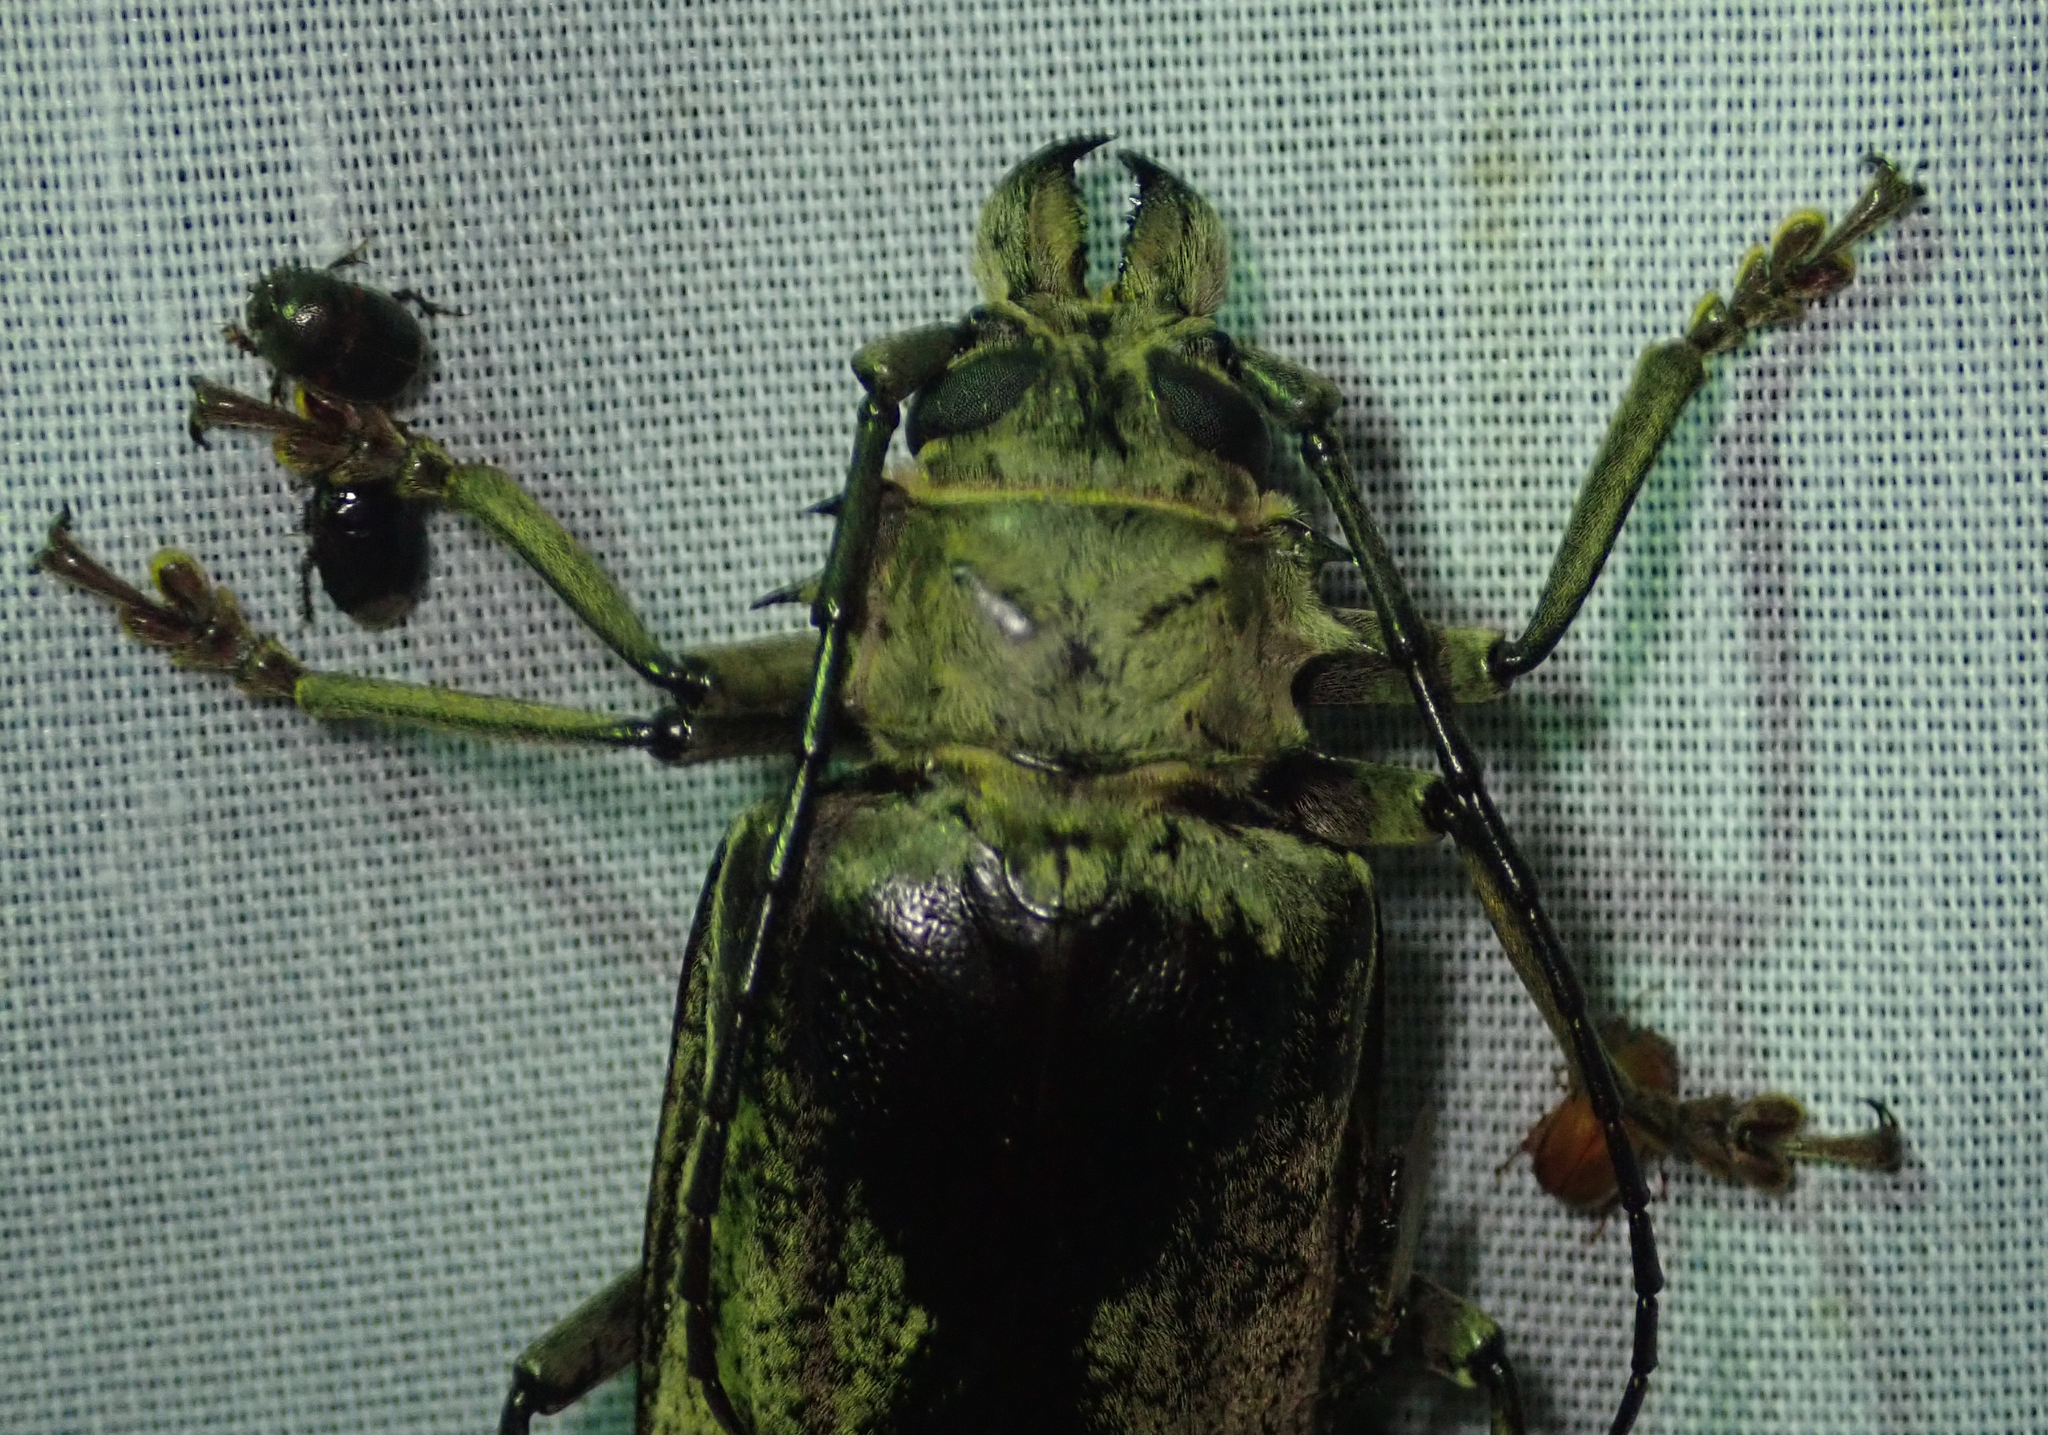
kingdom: Animalia
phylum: Arthropoda
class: Insecta
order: Coleoptera
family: Cerambycidae
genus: Tithoes
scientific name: Tithoes confinis
